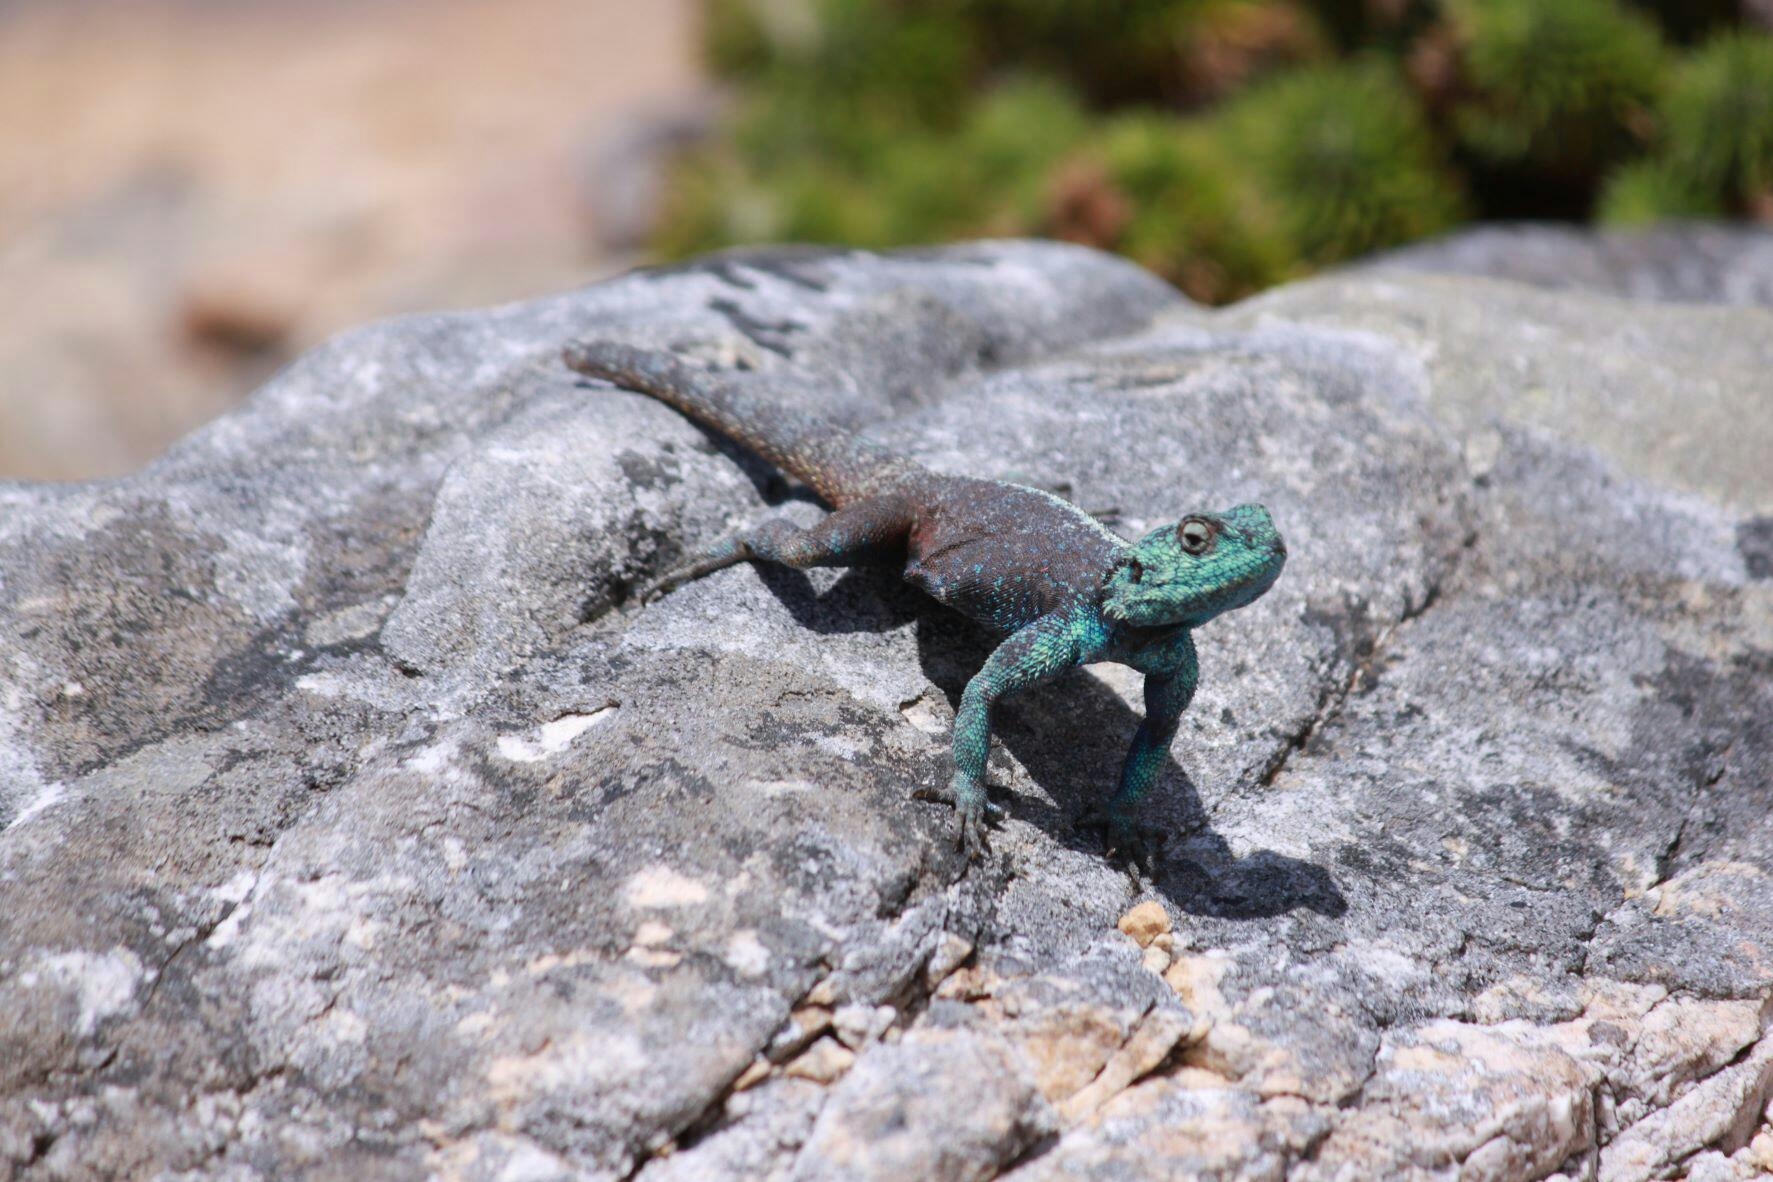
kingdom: Animalia
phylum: Chordata
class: Squamata
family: Agamidae
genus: Agama
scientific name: Agama atra
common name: Southern african rock agama
